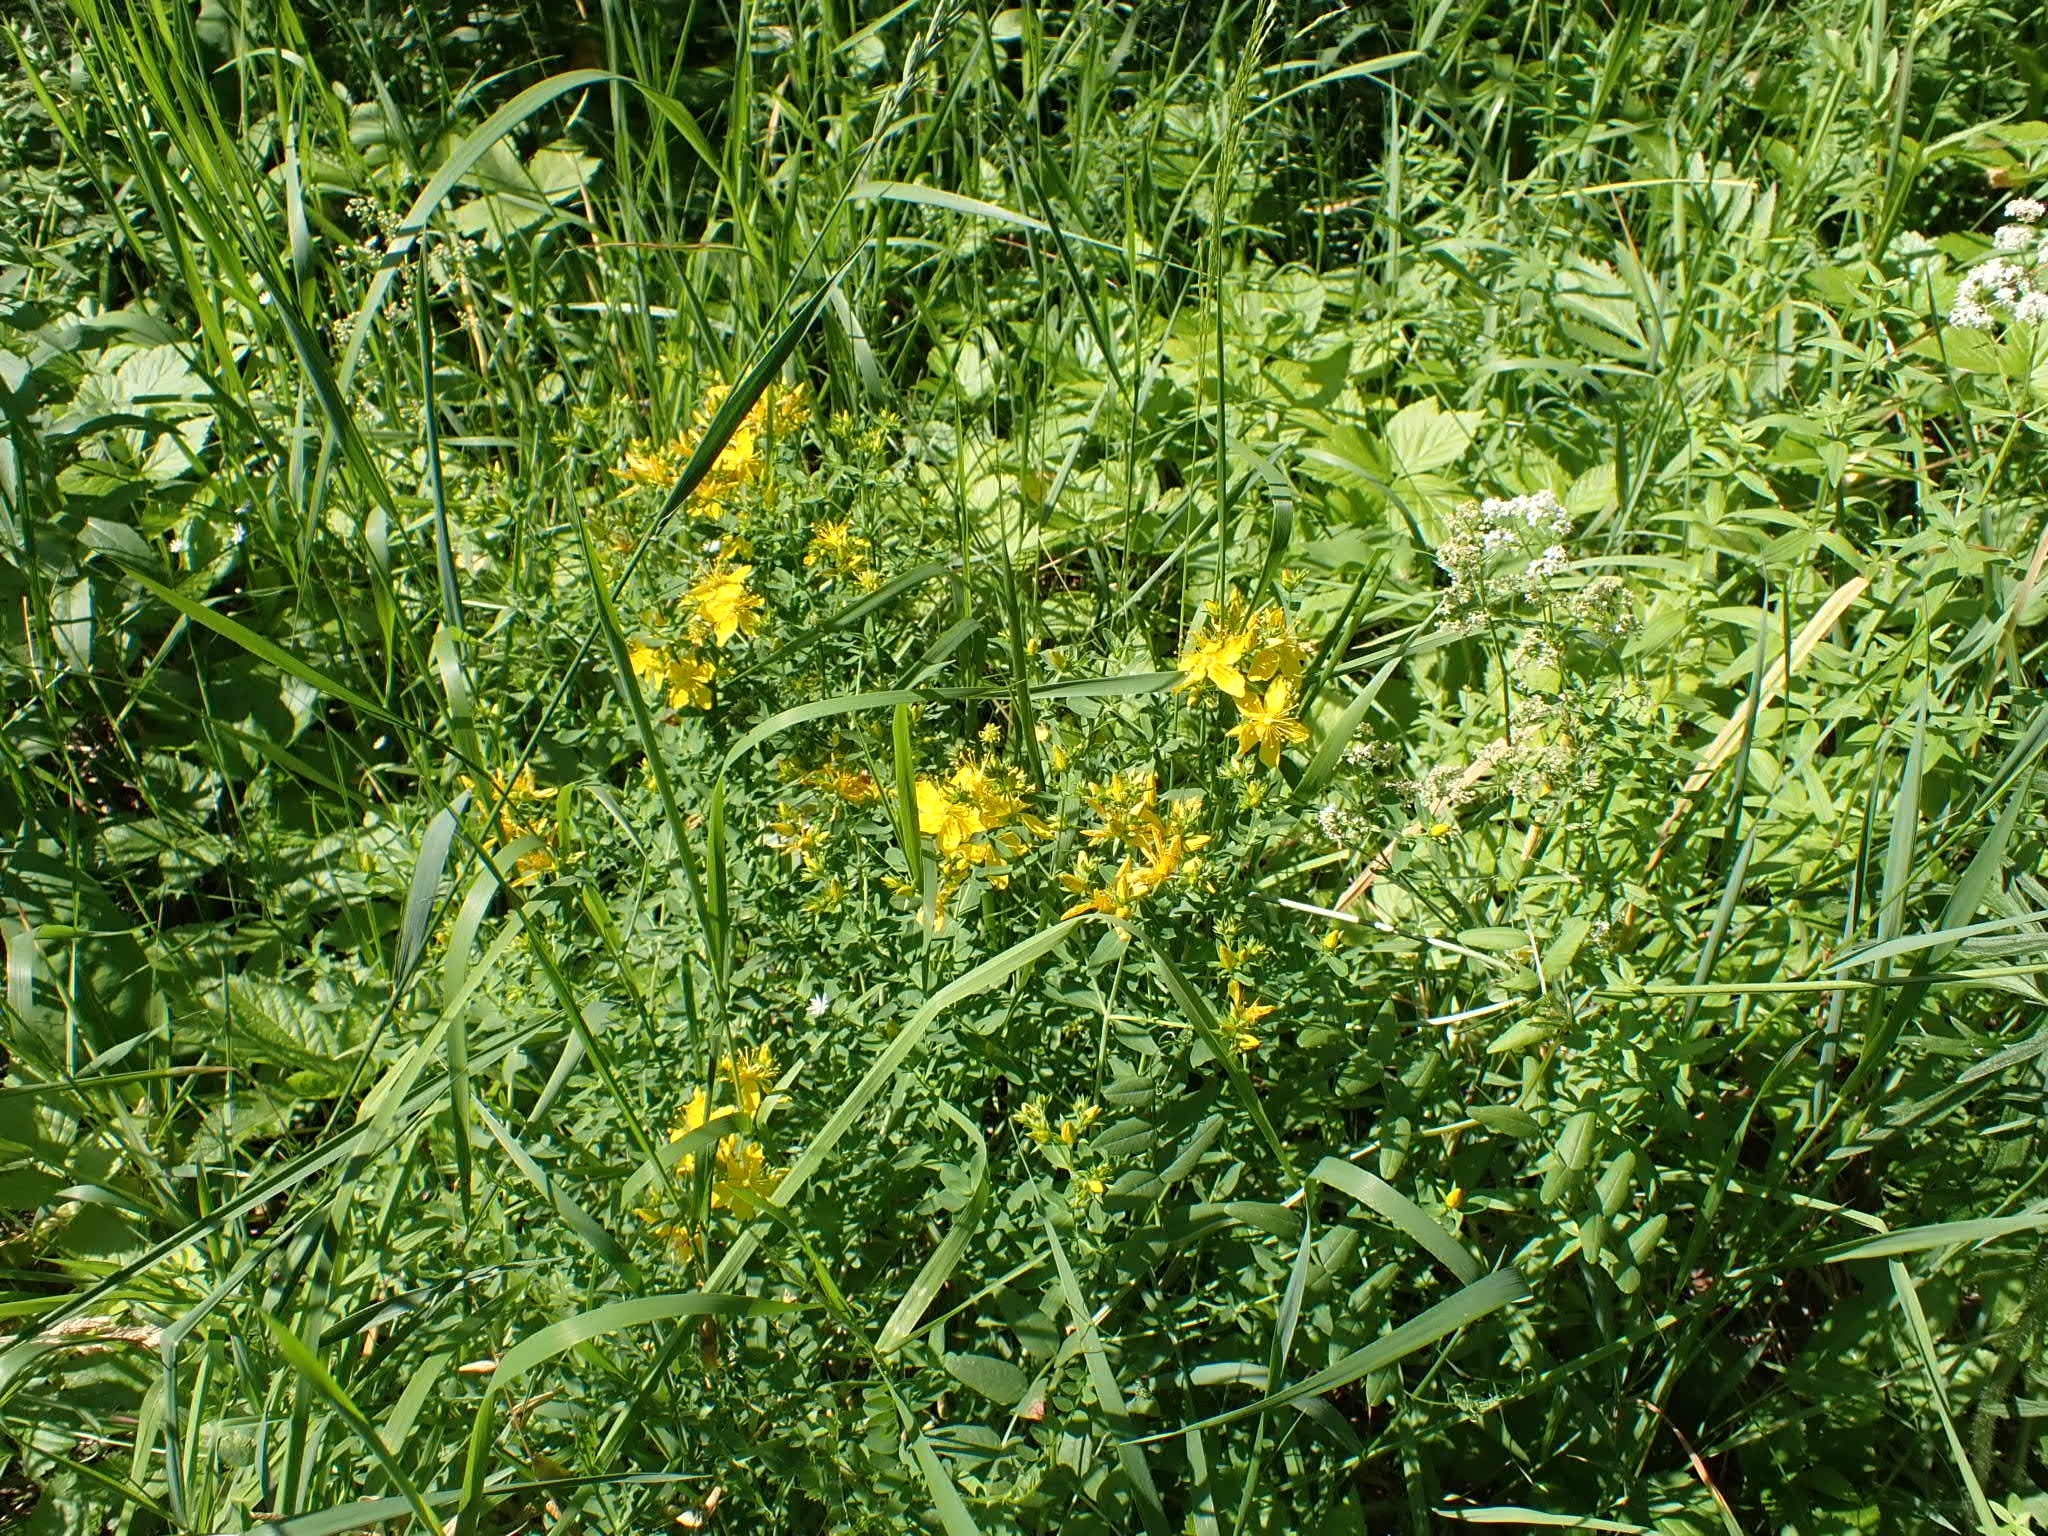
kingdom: Plantae
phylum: Tracheophyta
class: Magnoliopsida
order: Malpighiales
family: Hypericaceae
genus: Hypericum
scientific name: Hypericum perforatum
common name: Common st. johnswort
